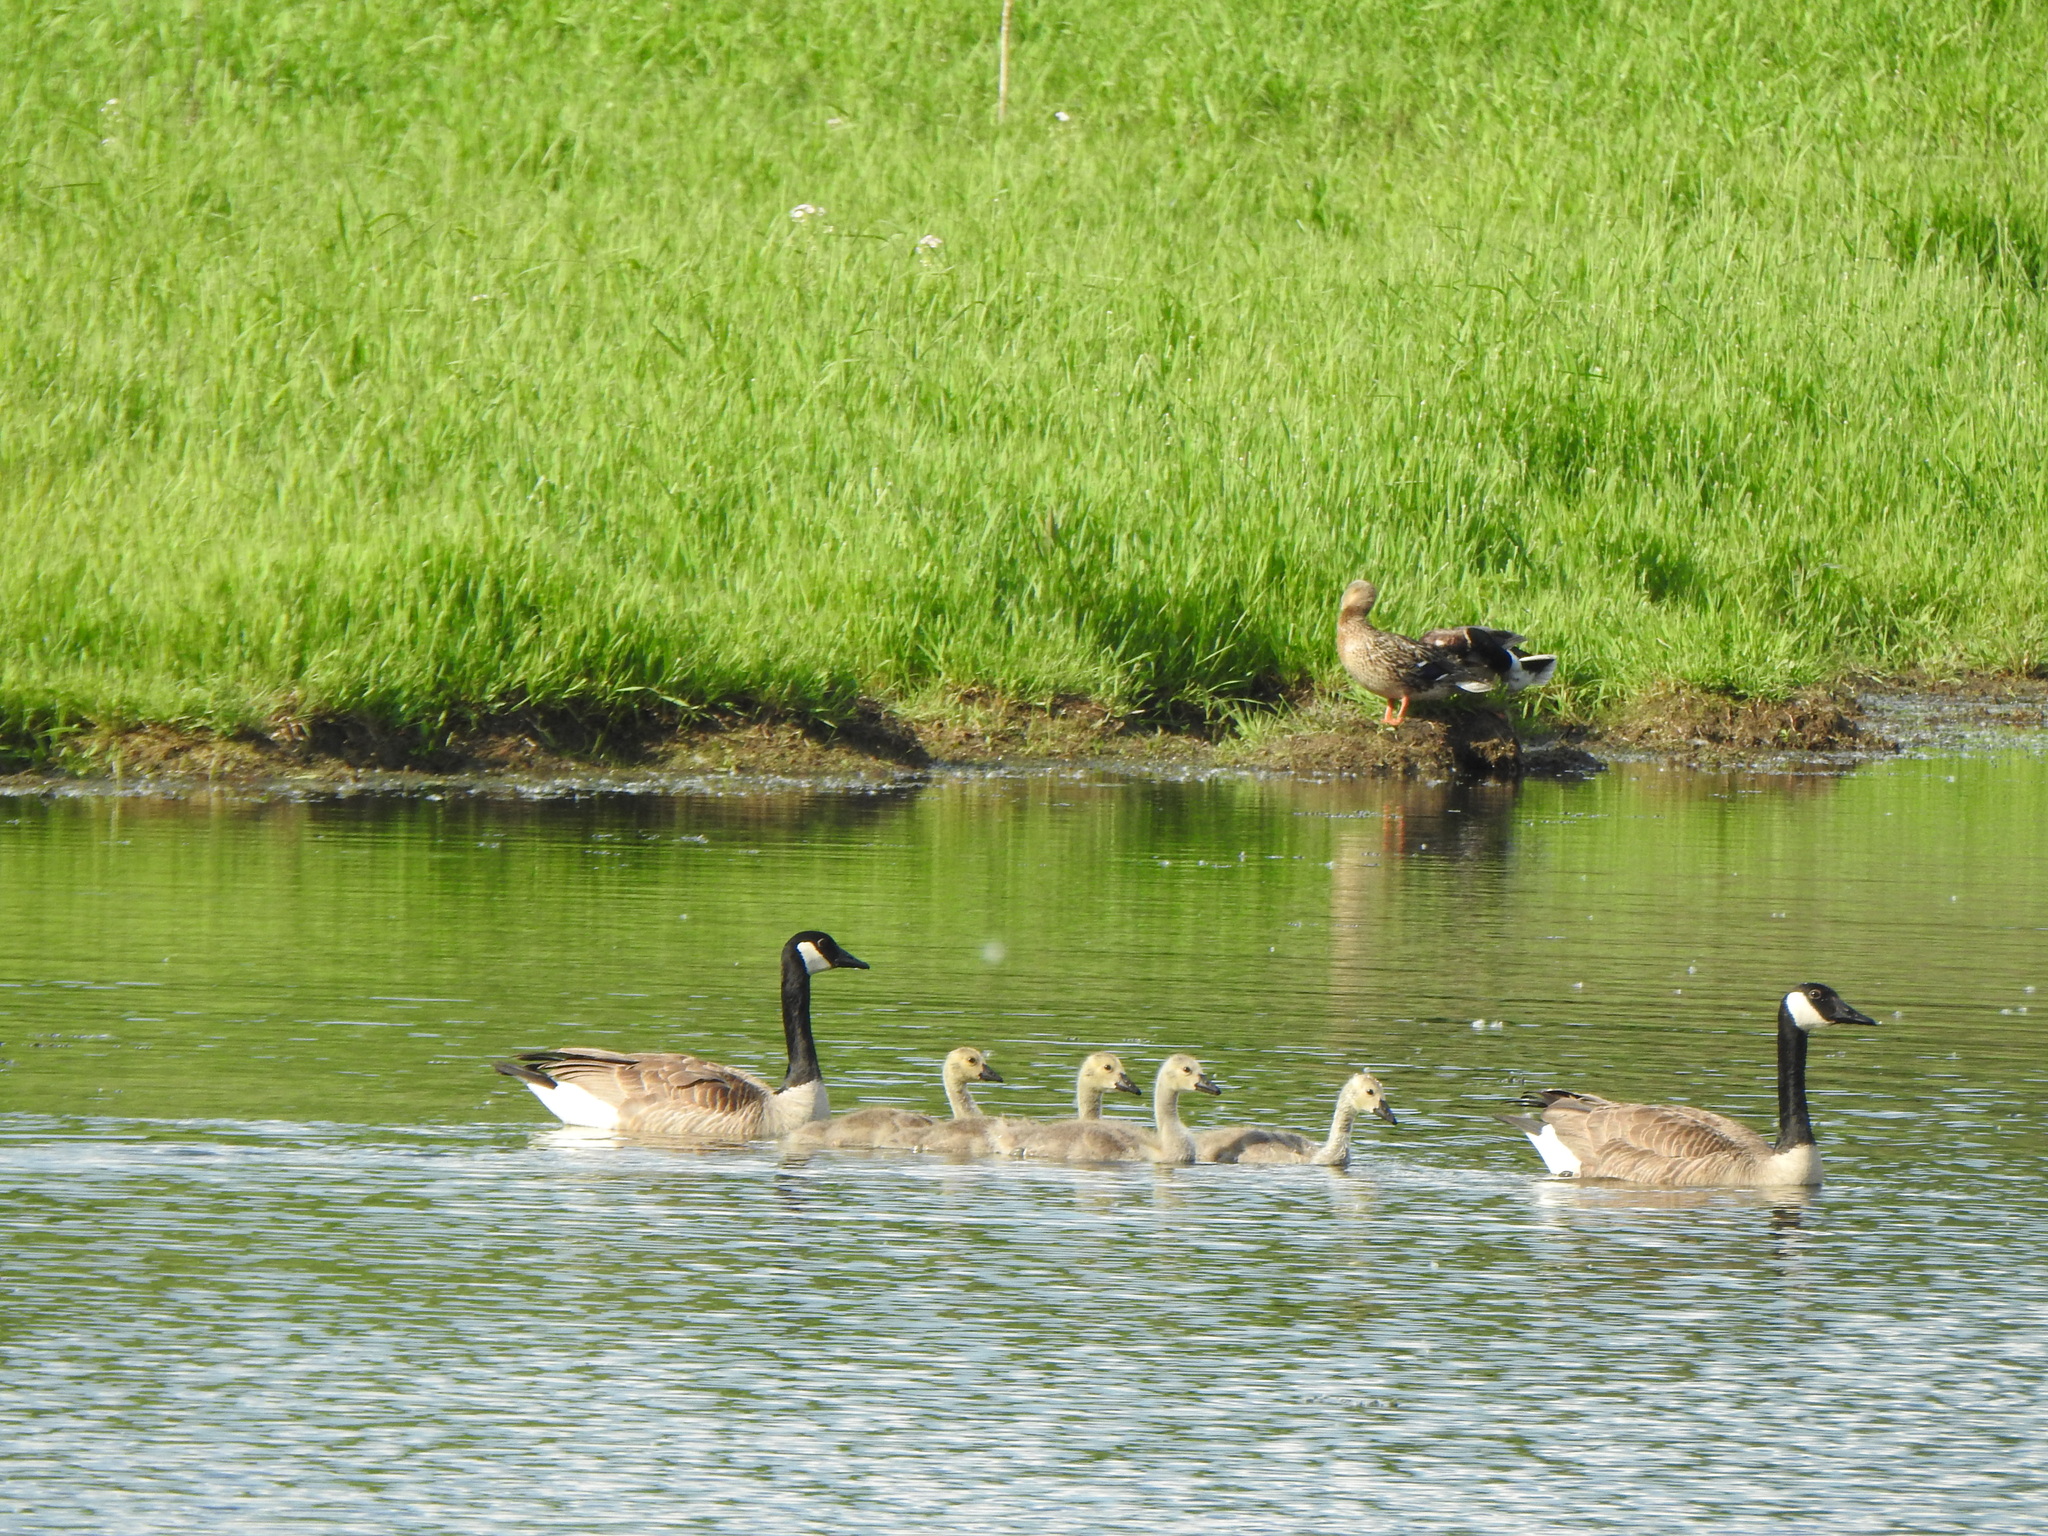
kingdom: Animalia
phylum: Chordata
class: Aves
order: Anseriformes
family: Anatidae
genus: Branta
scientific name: Branta canadensis
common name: Canada goose
